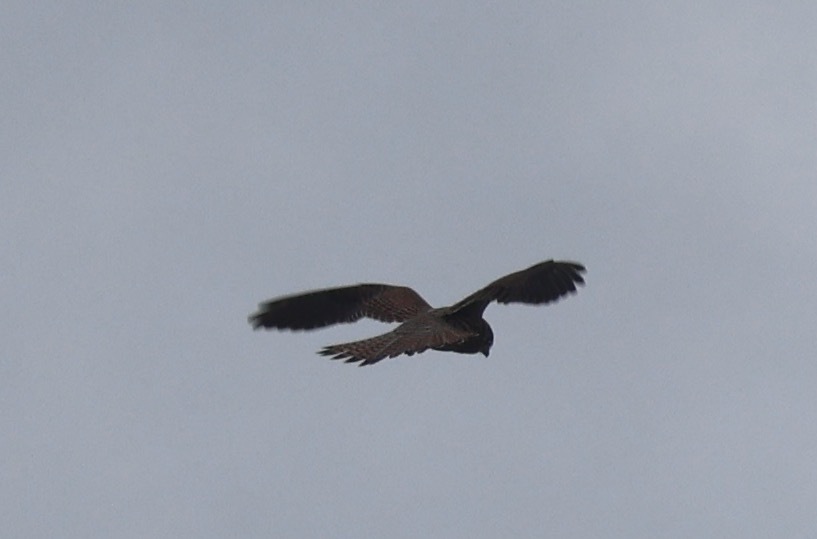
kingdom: Animalia
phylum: Chordata
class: Aves
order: Falconiformes
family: Falconidae
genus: Falco
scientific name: Falco tinnunculus
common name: Common kestrel
